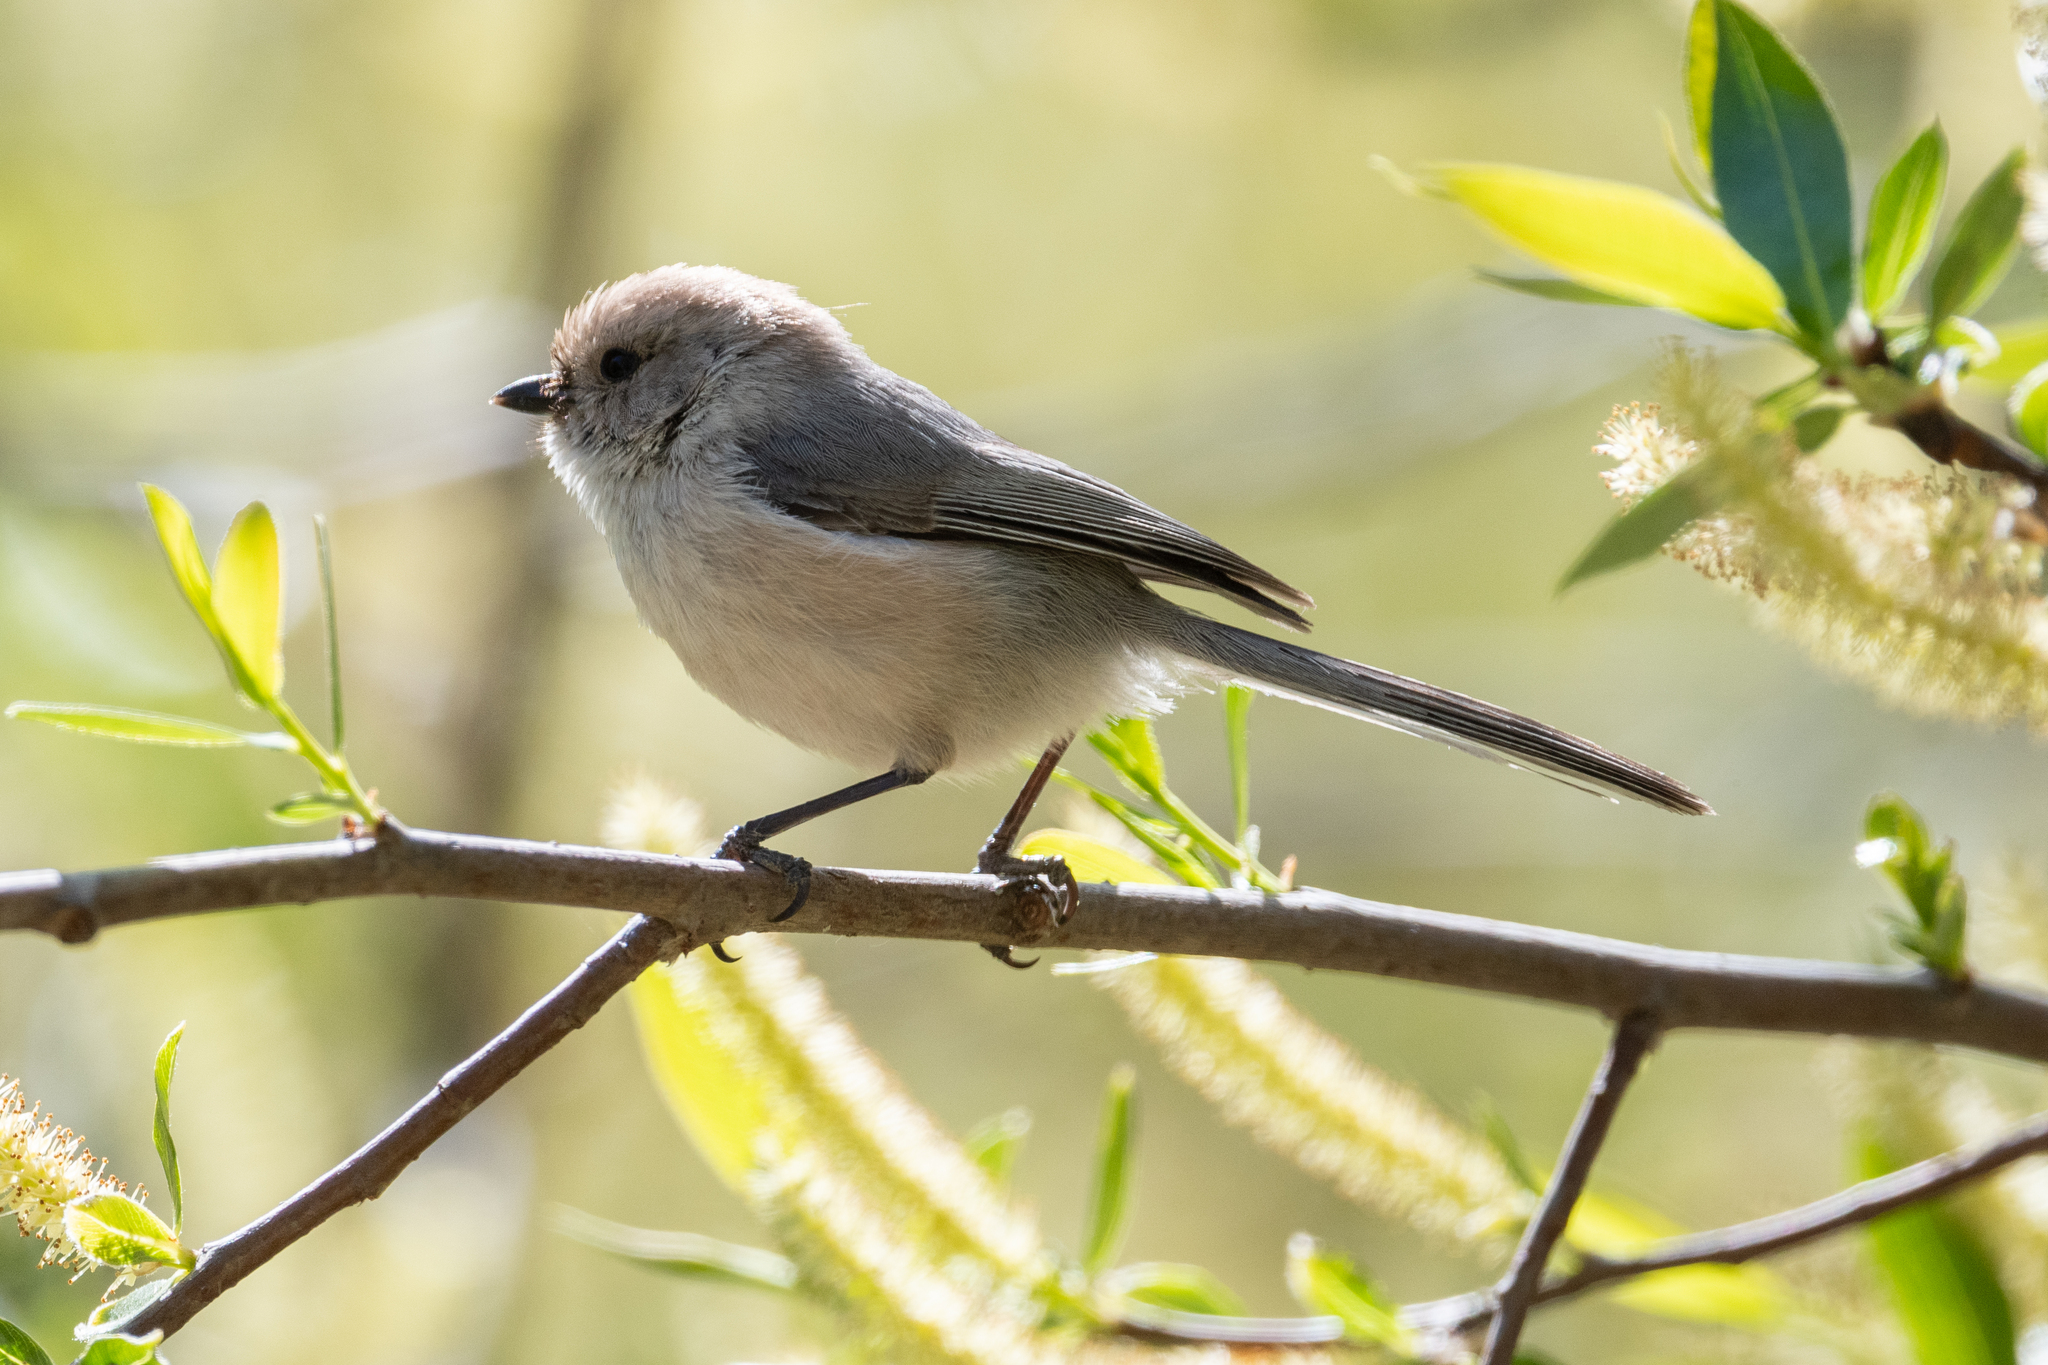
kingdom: Animalia
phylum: Chordata
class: Aves
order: Passeriformes
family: Aegithalidae
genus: Psaltriparus
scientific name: Psaltriparus minimus
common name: American bushtit
